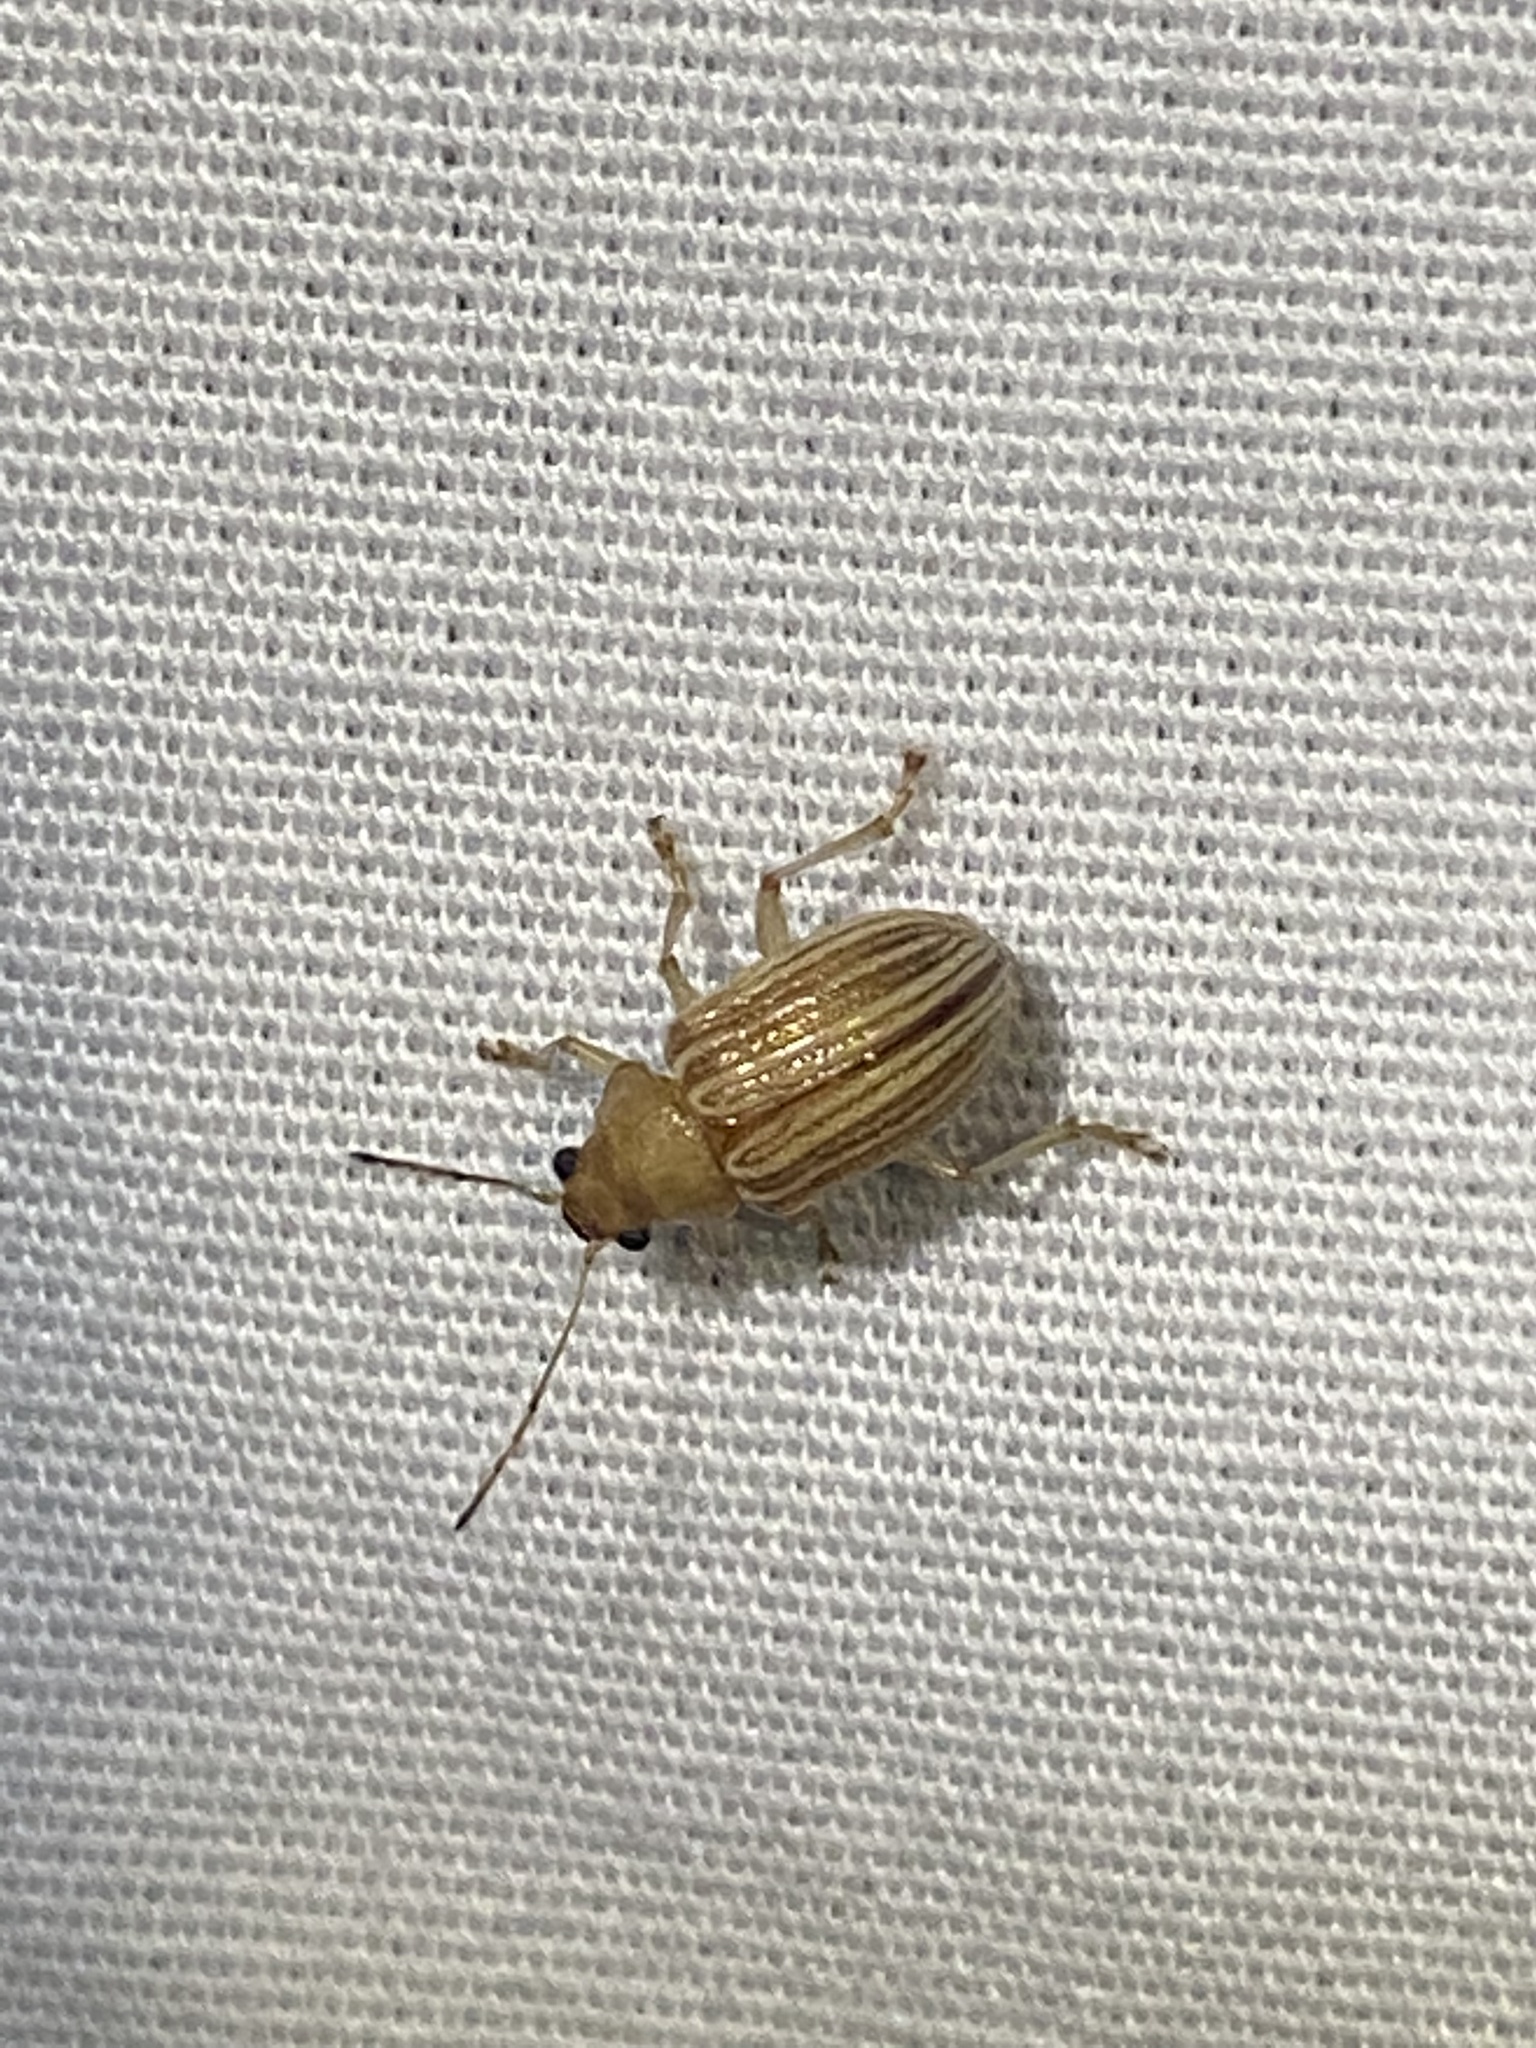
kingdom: Animalia
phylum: Arthropoda
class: Insecta
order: Coleoptera
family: Chrysomelidae
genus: Colaspis
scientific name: Colaspis brunnea
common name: Grape colaspis
